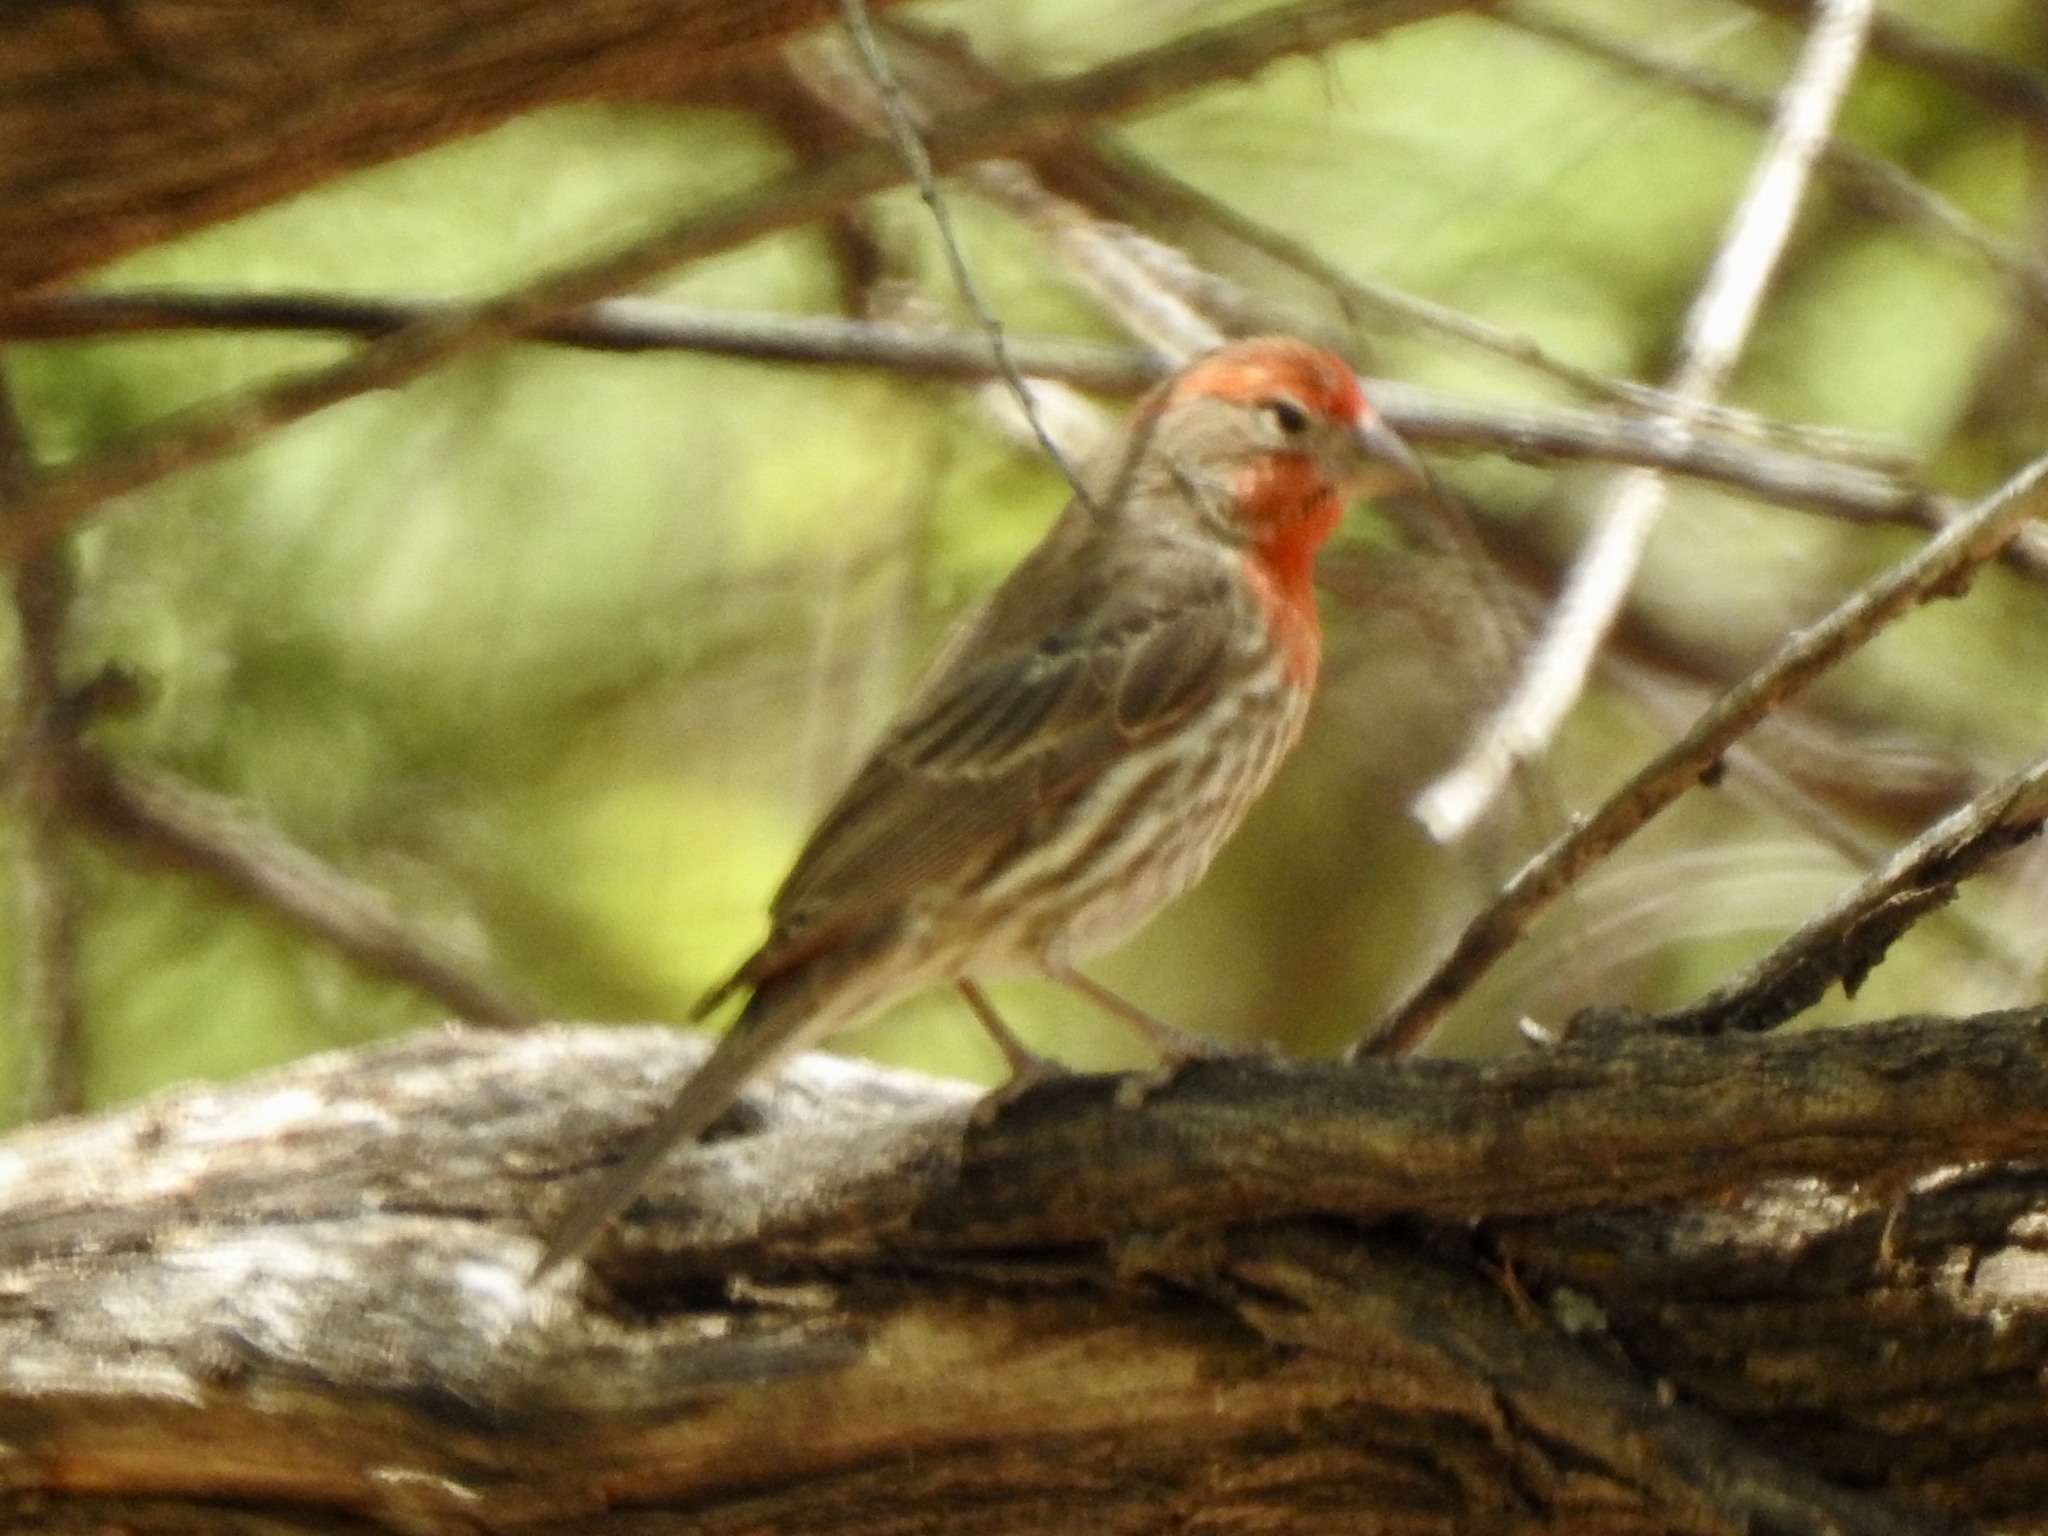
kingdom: Animalia
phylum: Chordata
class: Aves
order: Passeriformes
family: Fringillidae
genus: Haemorhous
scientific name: Haemorhous mexicanus
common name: House finch
